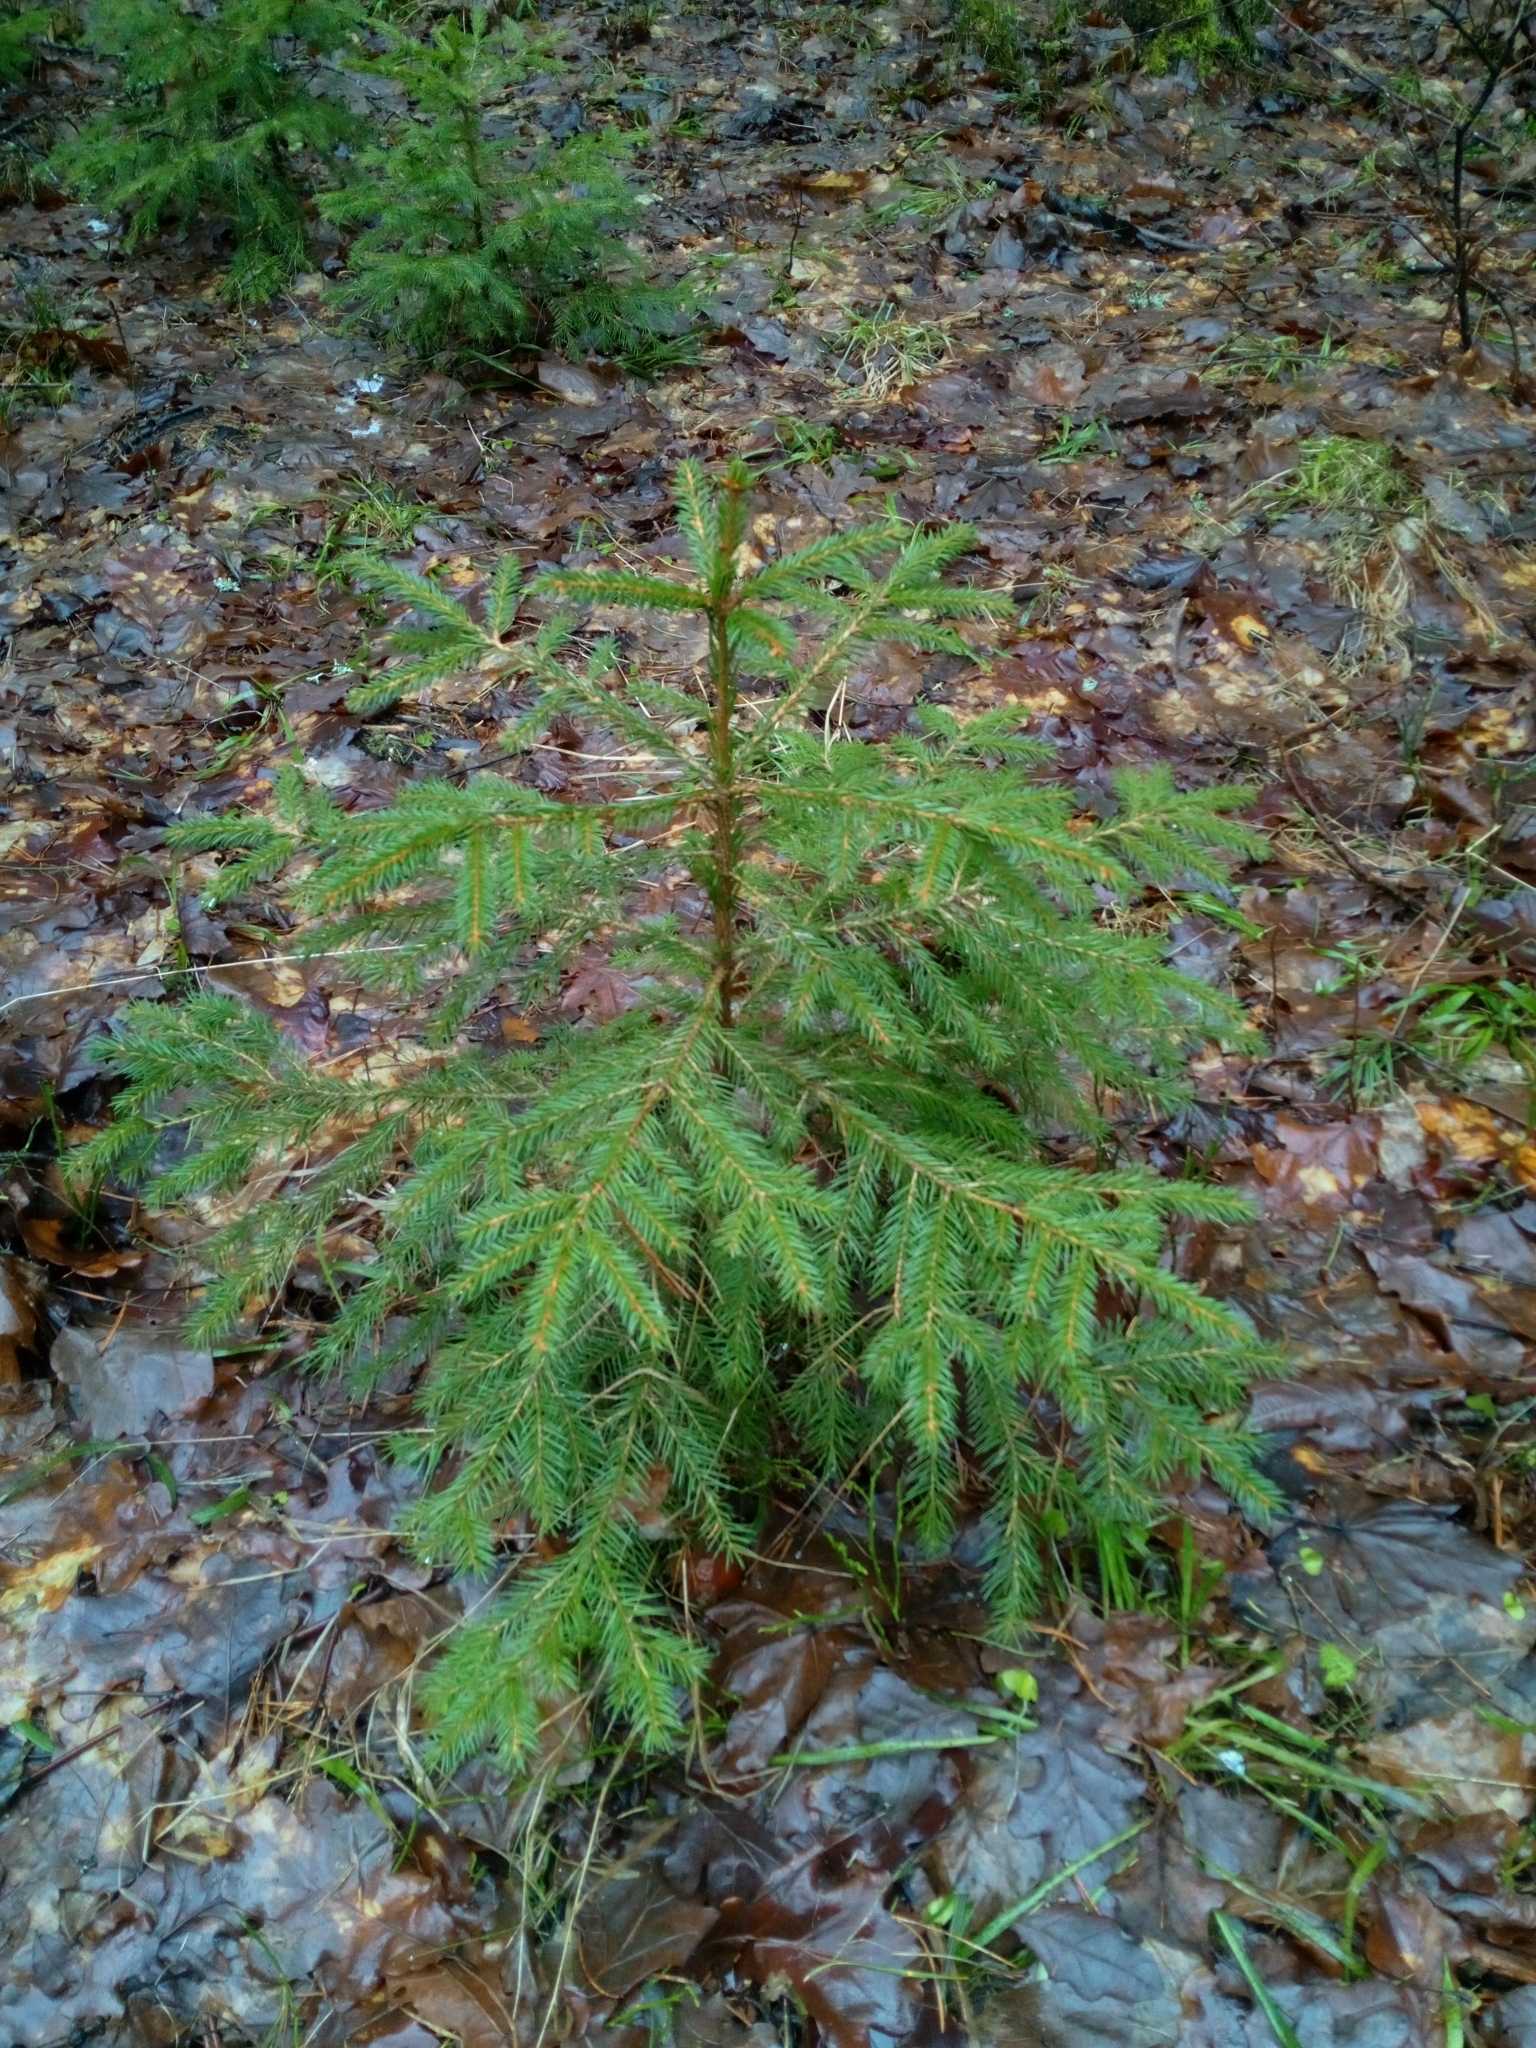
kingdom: Plantae
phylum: Tracheophyta
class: Pinopsida
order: Pinales
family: Pinaceae
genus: Picea
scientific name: Picea abies
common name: Norway spruce
